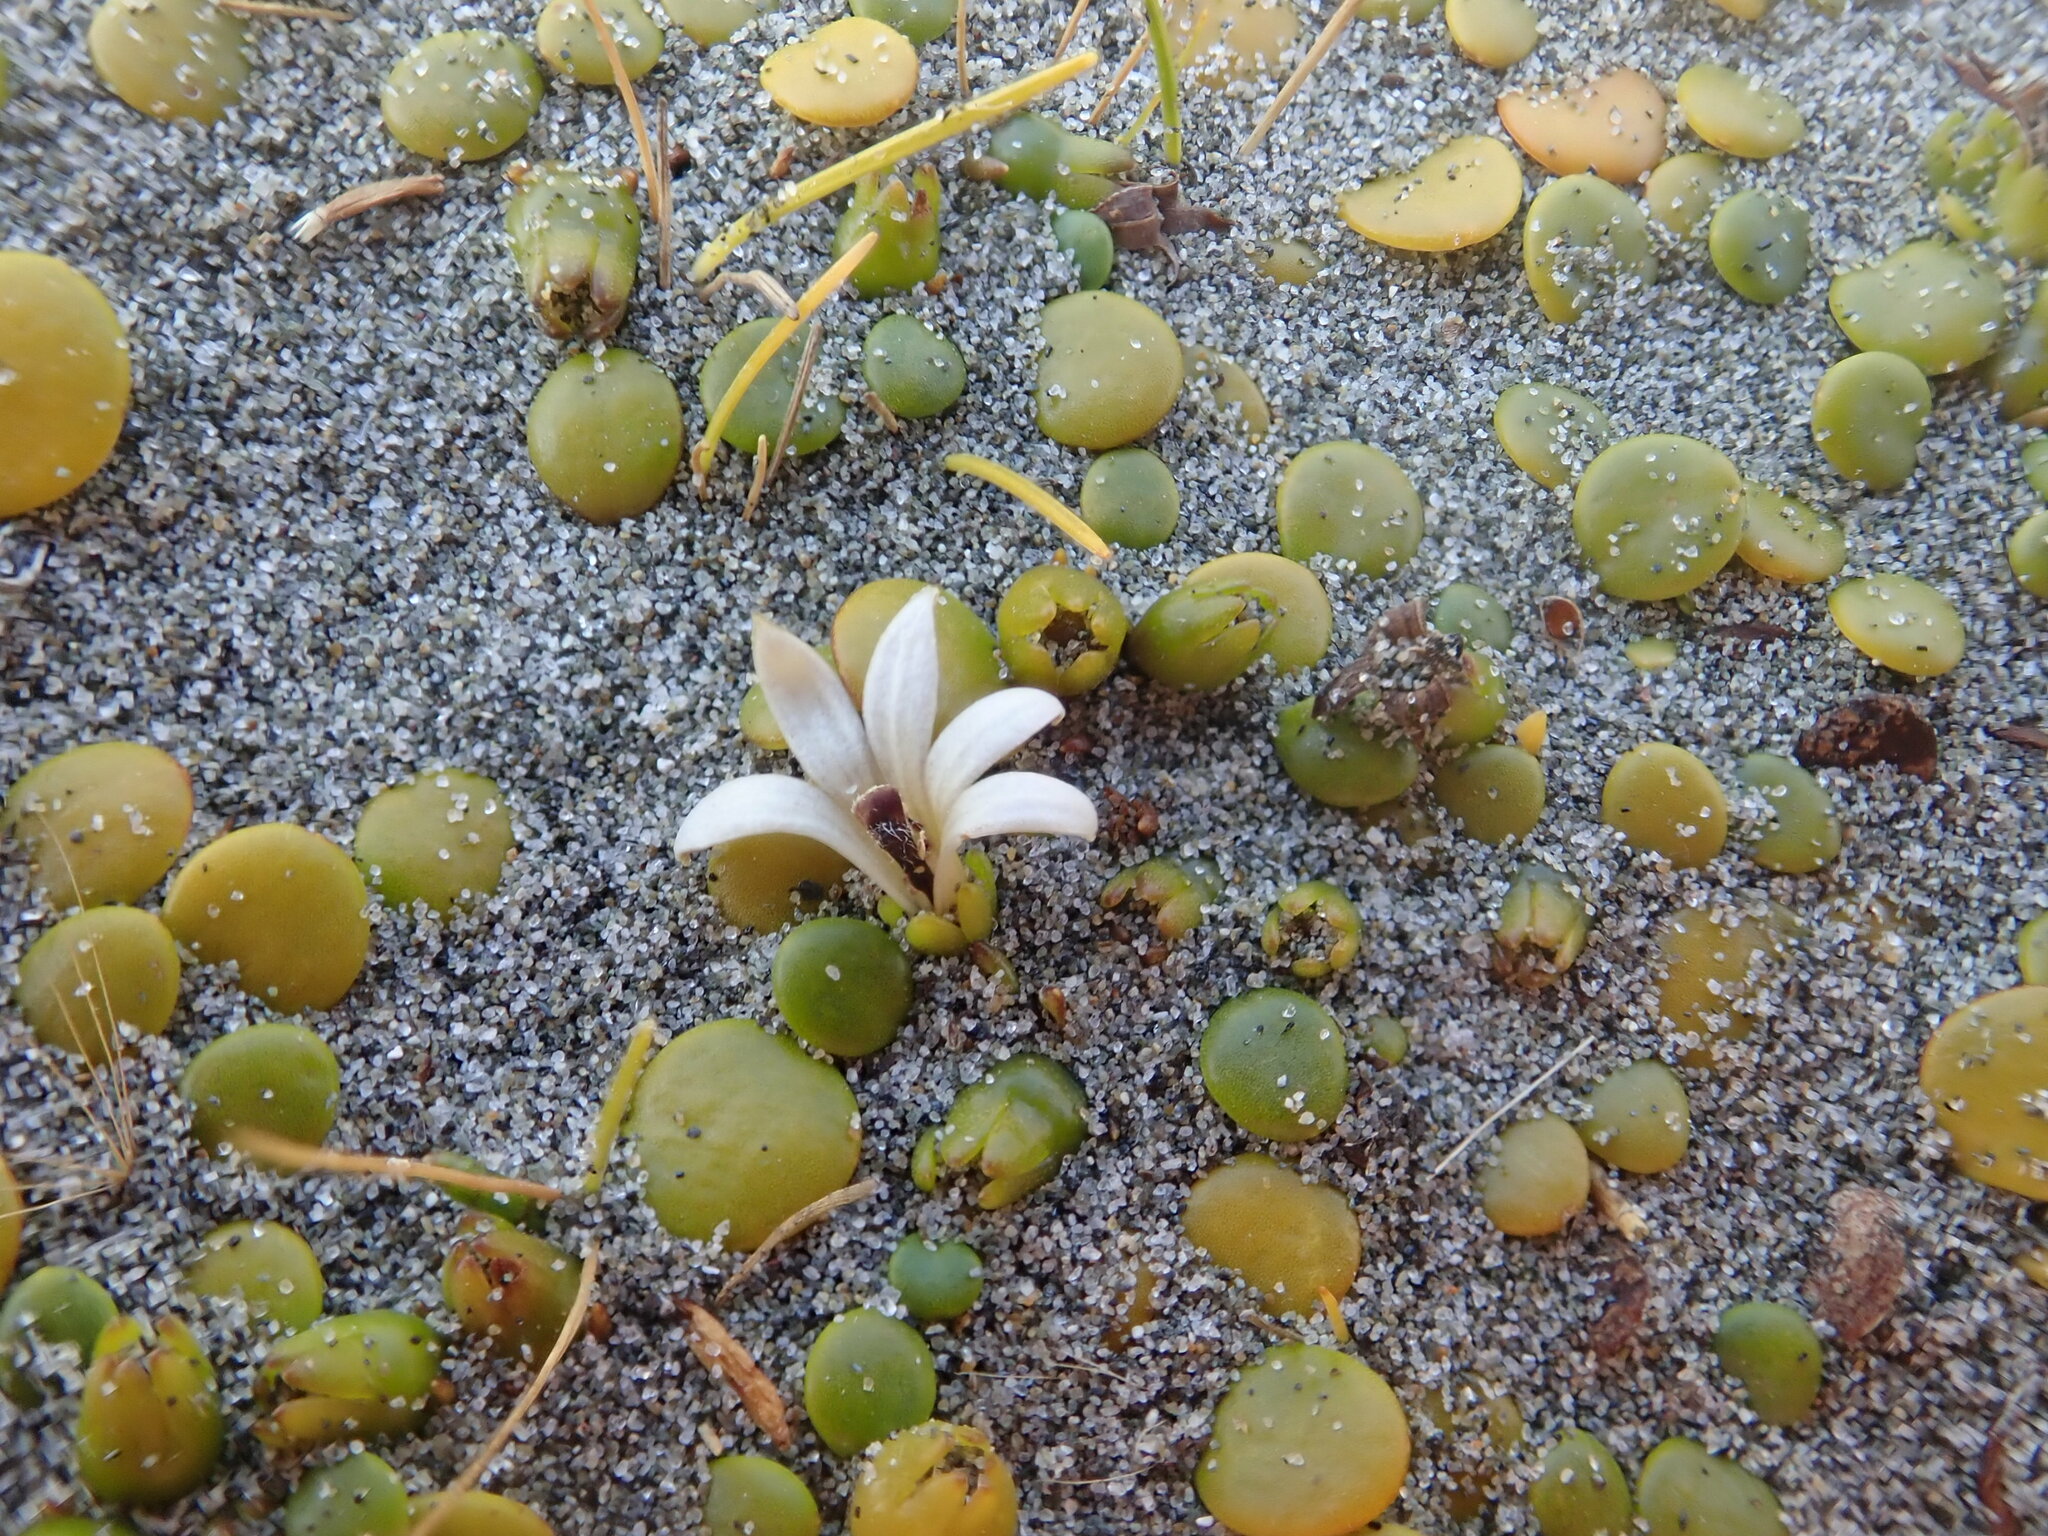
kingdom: Plantae
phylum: Tracheophyta
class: Magnoliopsida
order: Asterales
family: Goodeniaceae
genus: Goodenia
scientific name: Goodenia heenanii
